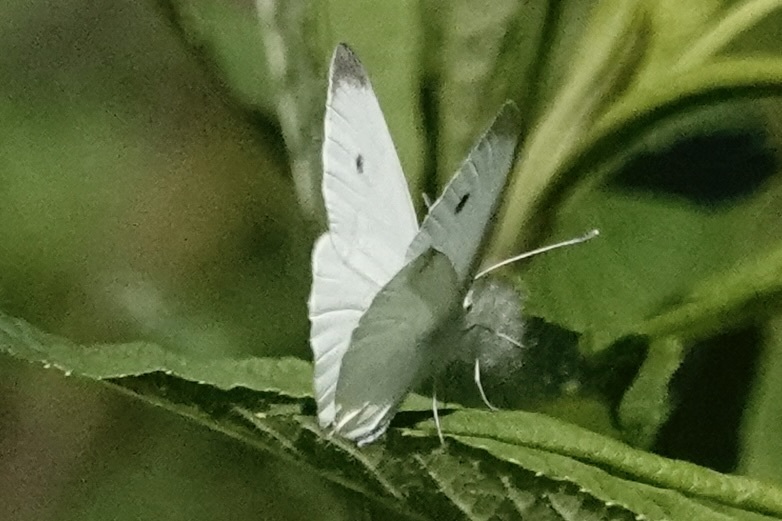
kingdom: Animalia
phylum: Arthropoda
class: Insecta
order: Lepidoptera
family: Pieridae
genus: Pieris
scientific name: Pieris rapae
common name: Small white
